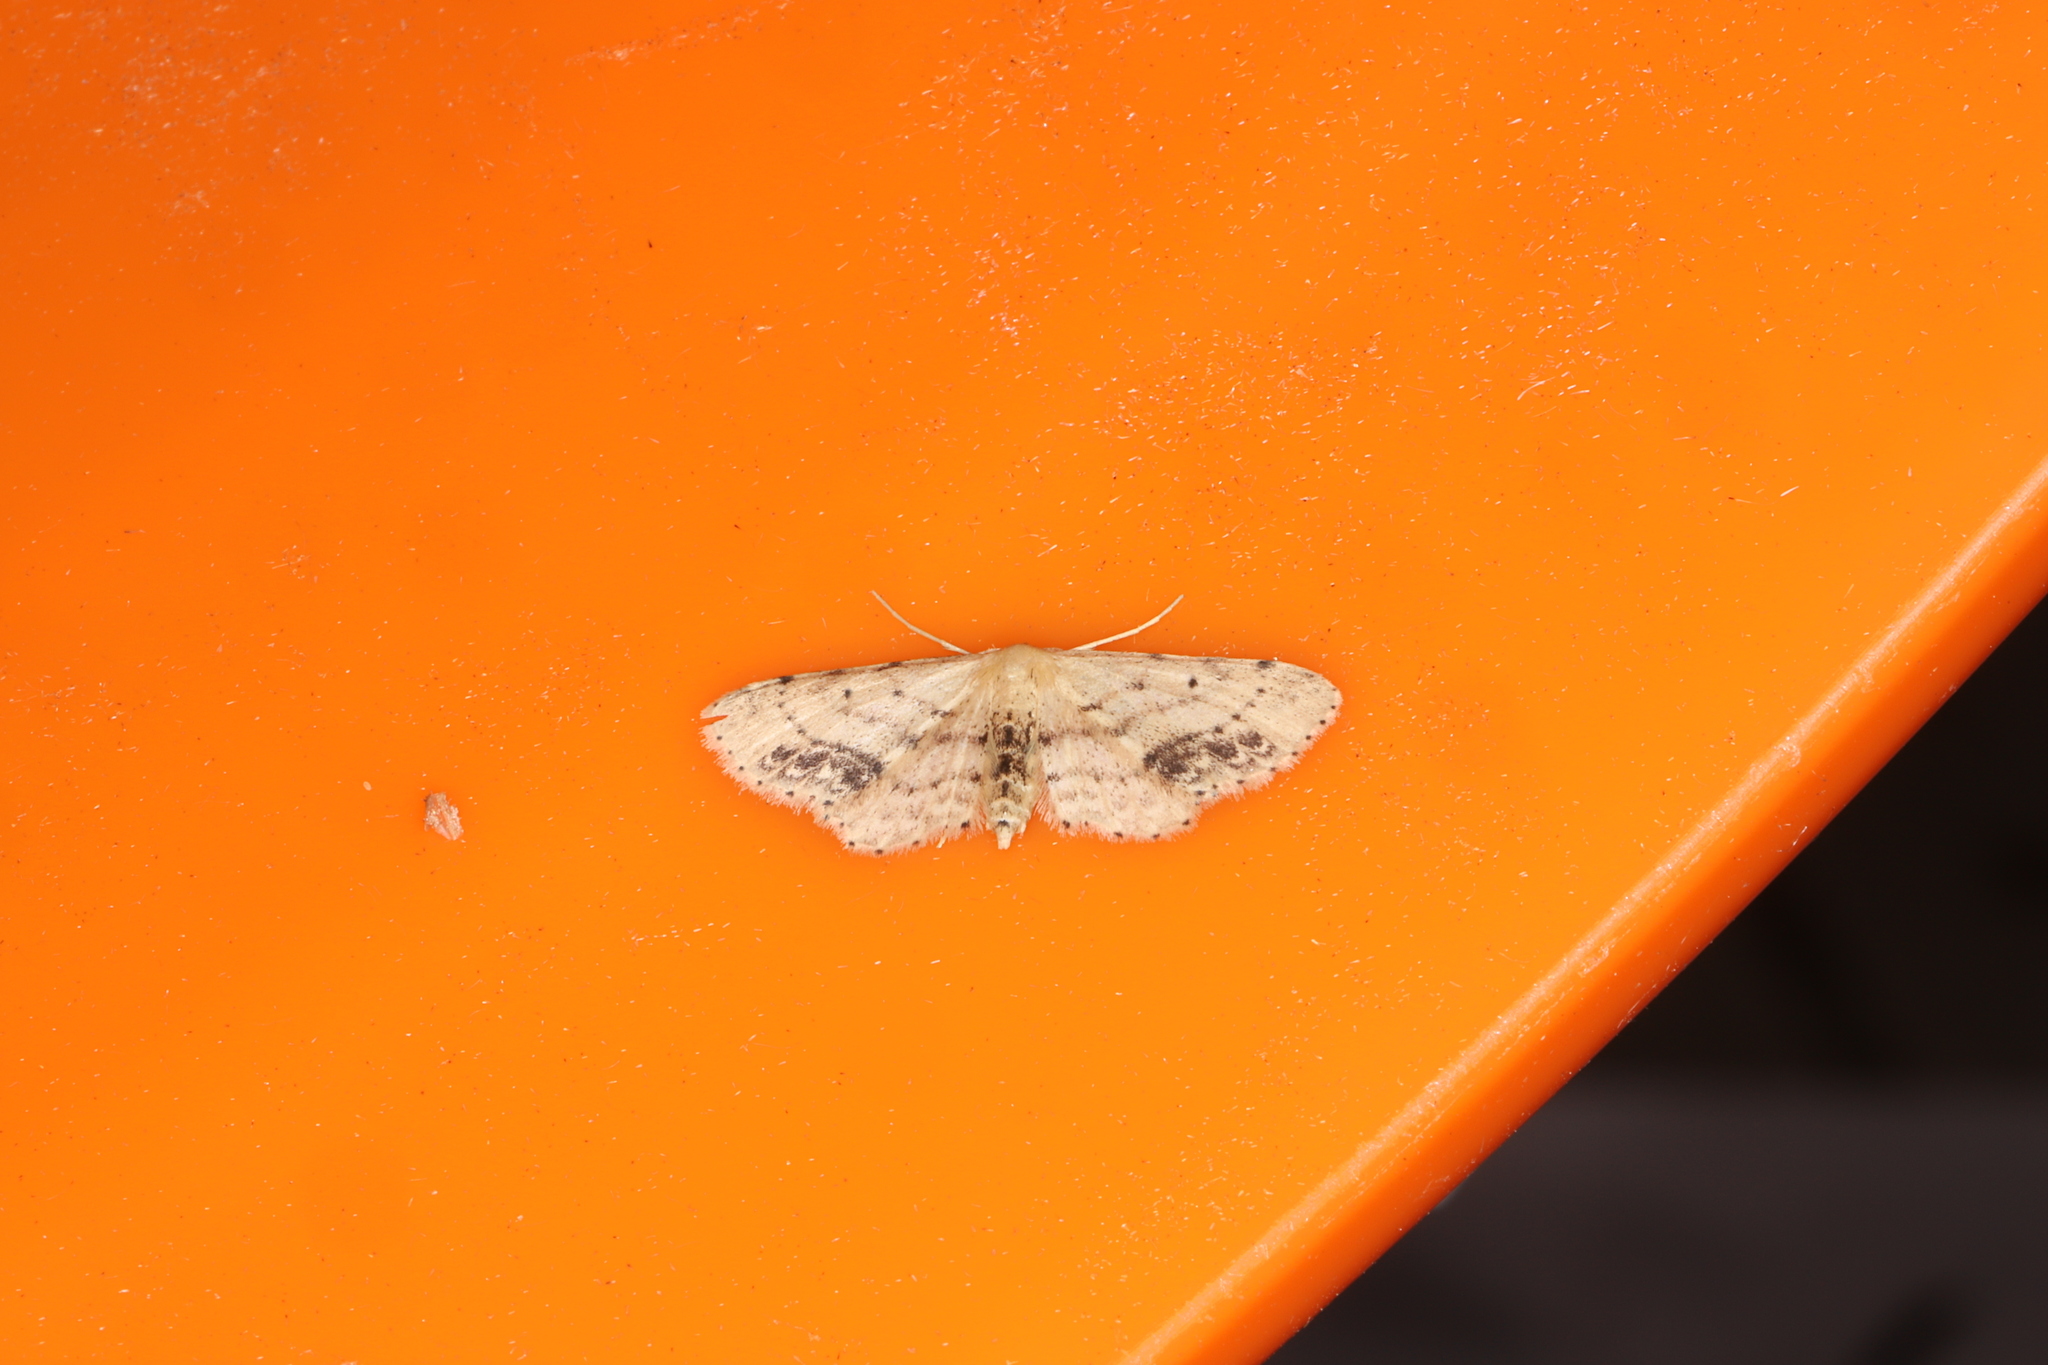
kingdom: Animalia
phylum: Arthropoda
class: Insecta
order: Lepidoptera
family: Geometridae
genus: Idaea
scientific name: Idaea dimidiata
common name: Single-dotted wave
